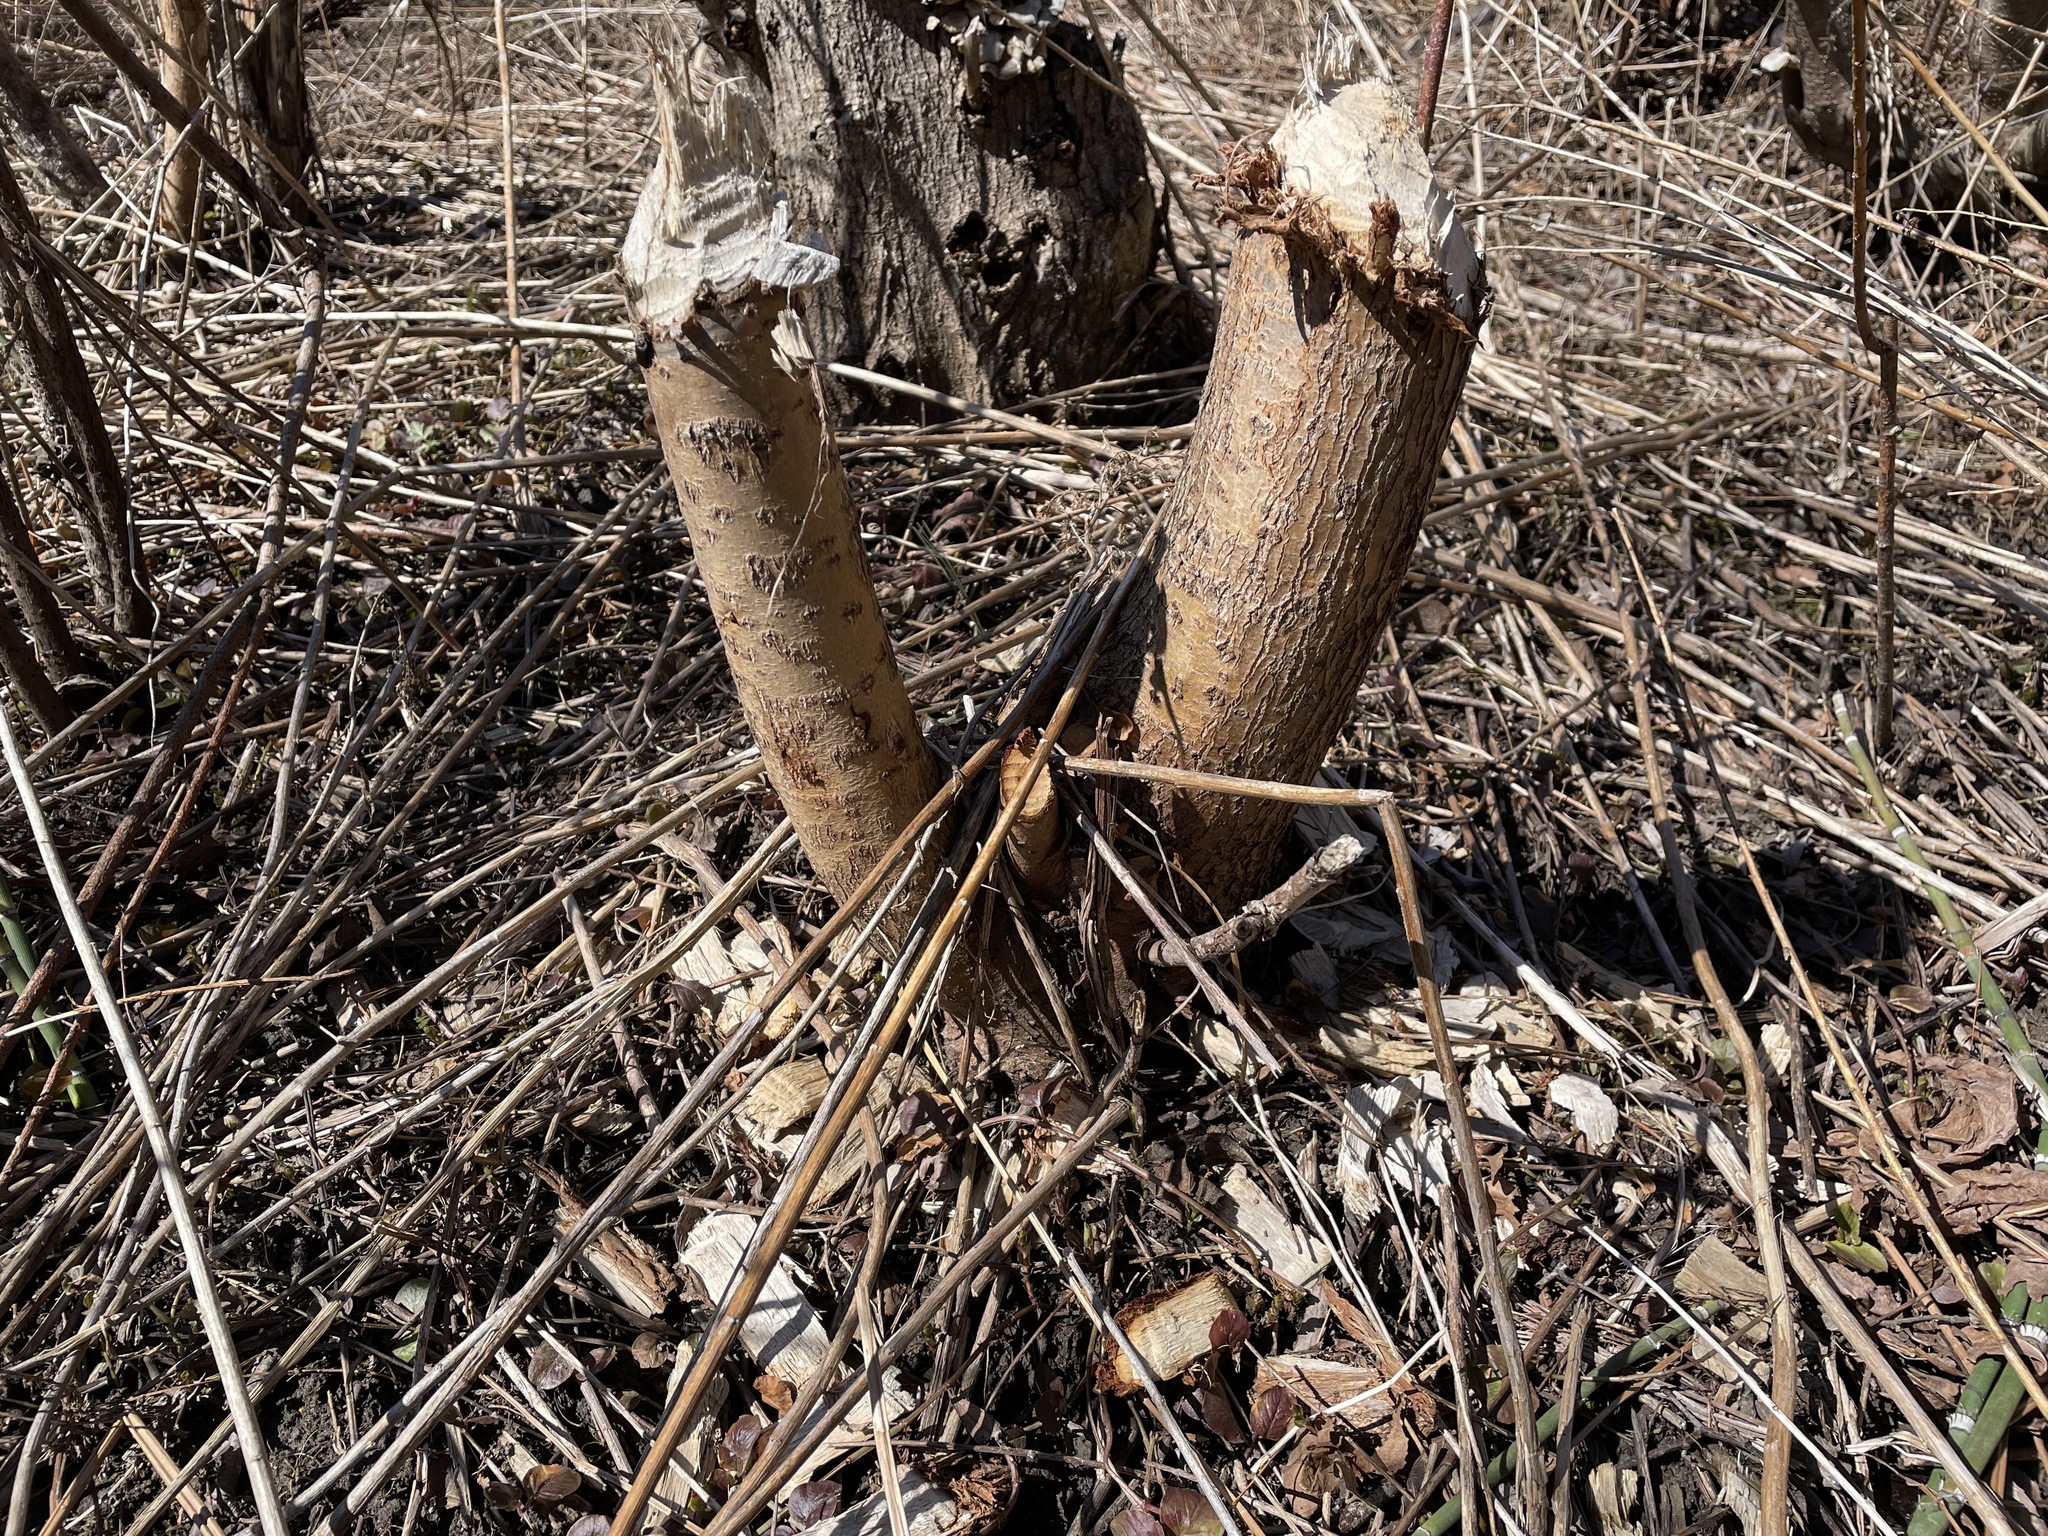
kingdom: Animalia
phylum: Chordata
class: Mammalia
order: Rodentia
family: Castoridae
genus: Castor
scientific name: Castor canadensis
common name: American beaver
